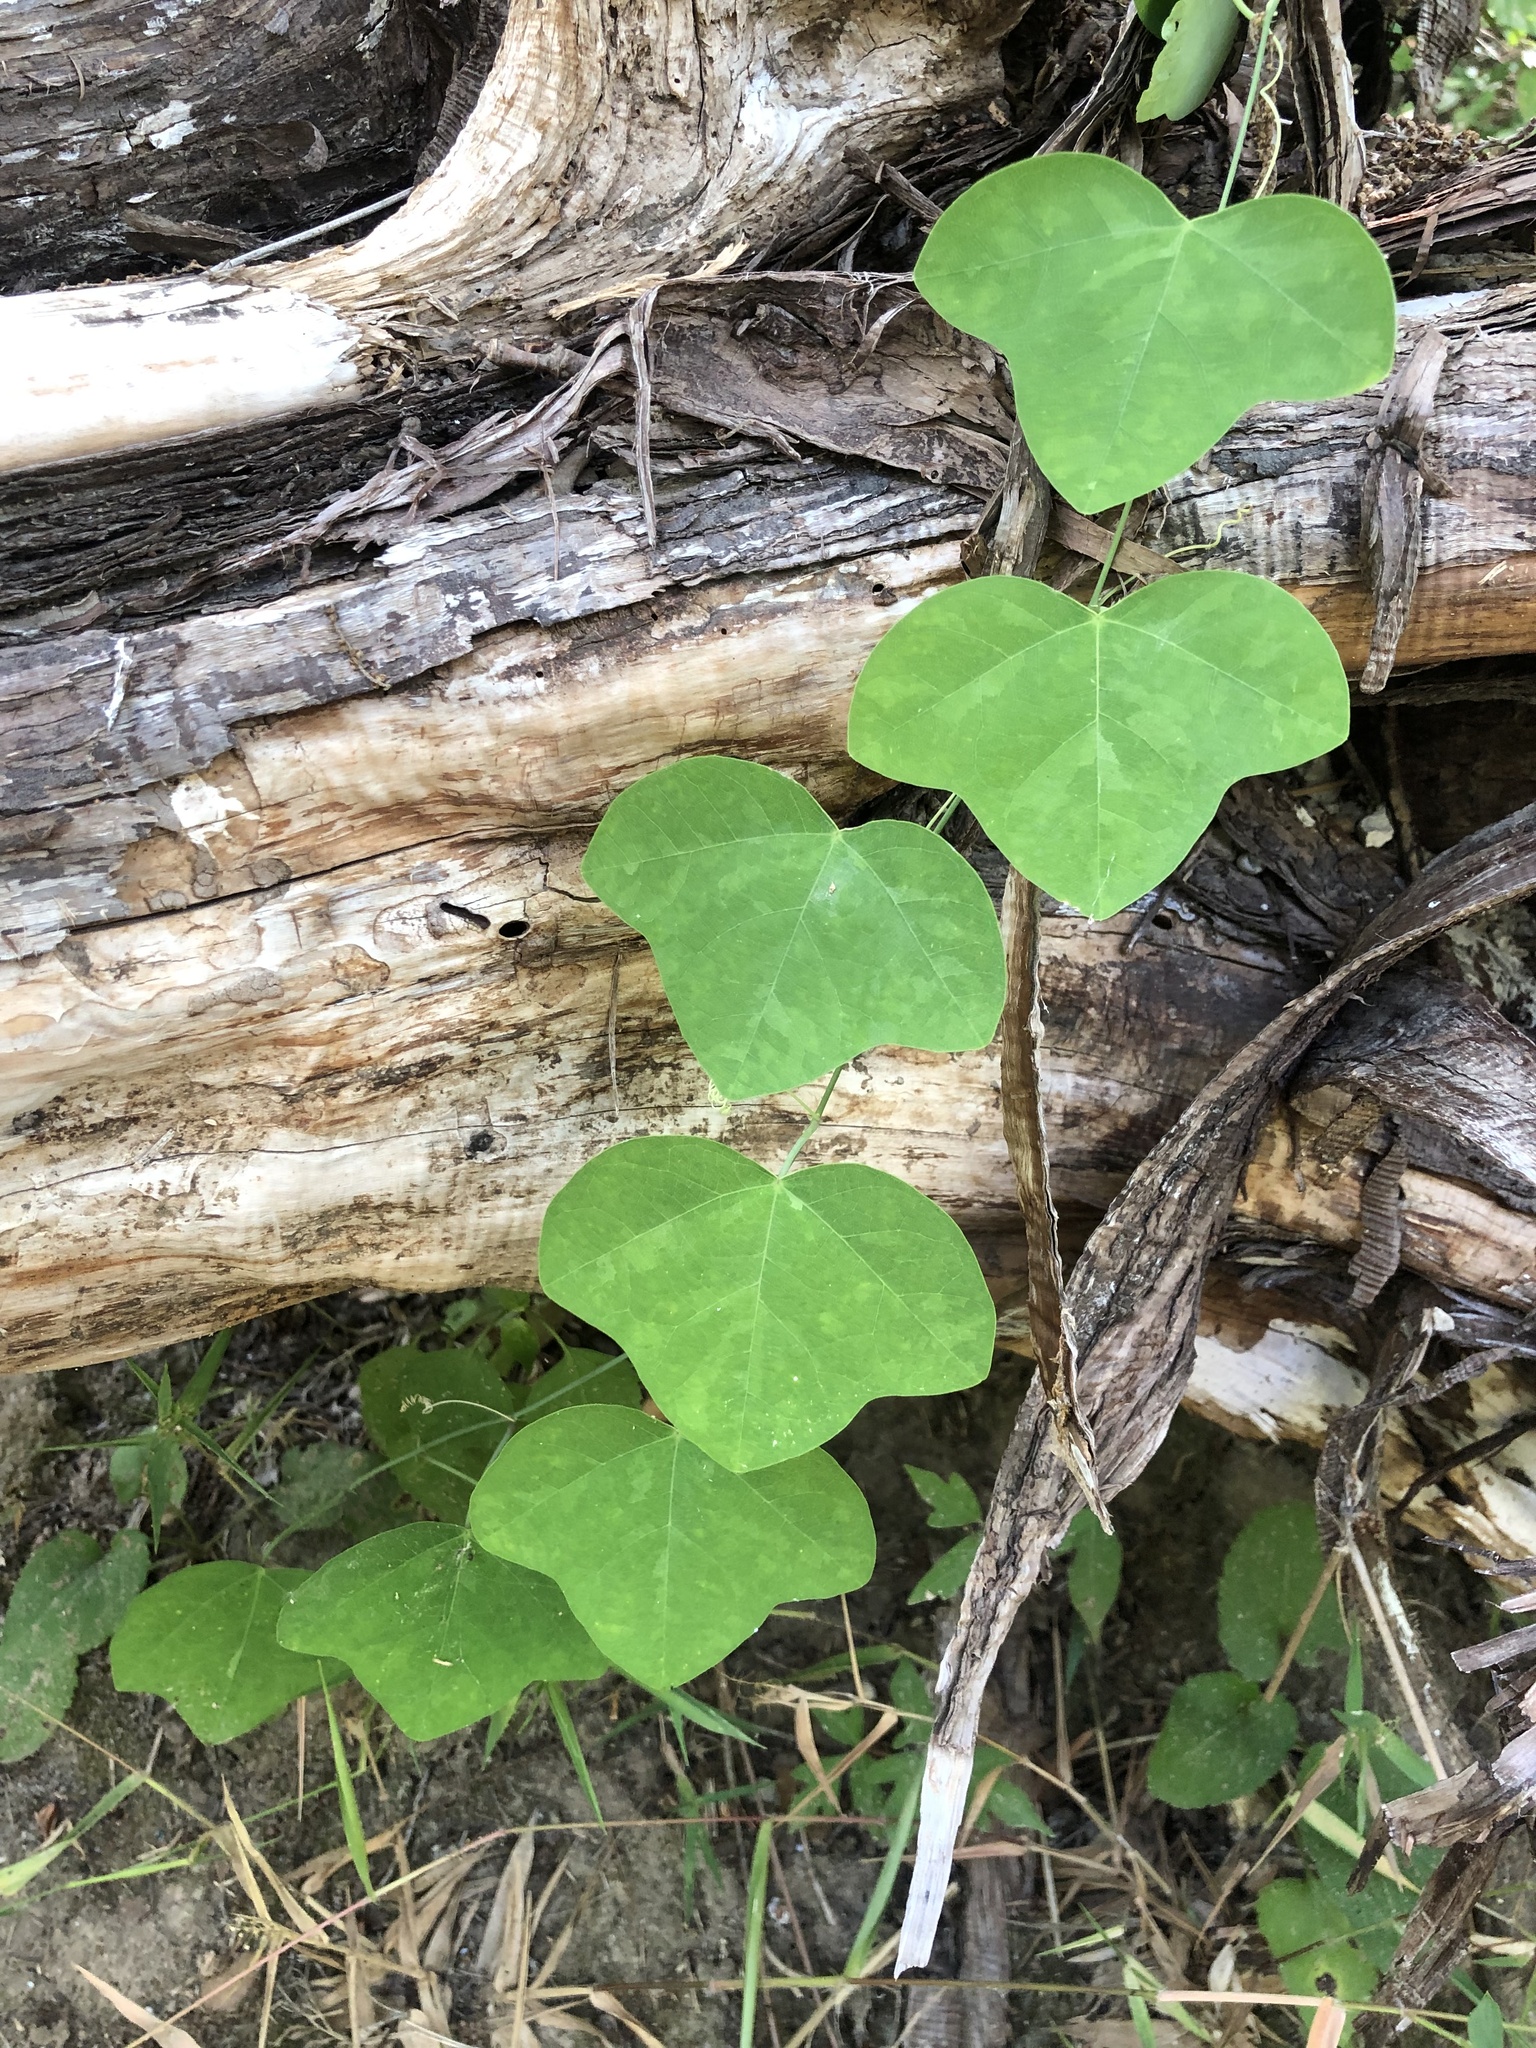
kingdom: Plantae
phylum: Tracheophyta
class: Magnoliopsida
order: Malpighiales
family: Passifloraceae
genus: Passiflora
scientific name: Passiflora lutea
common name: Yellow passionflower
